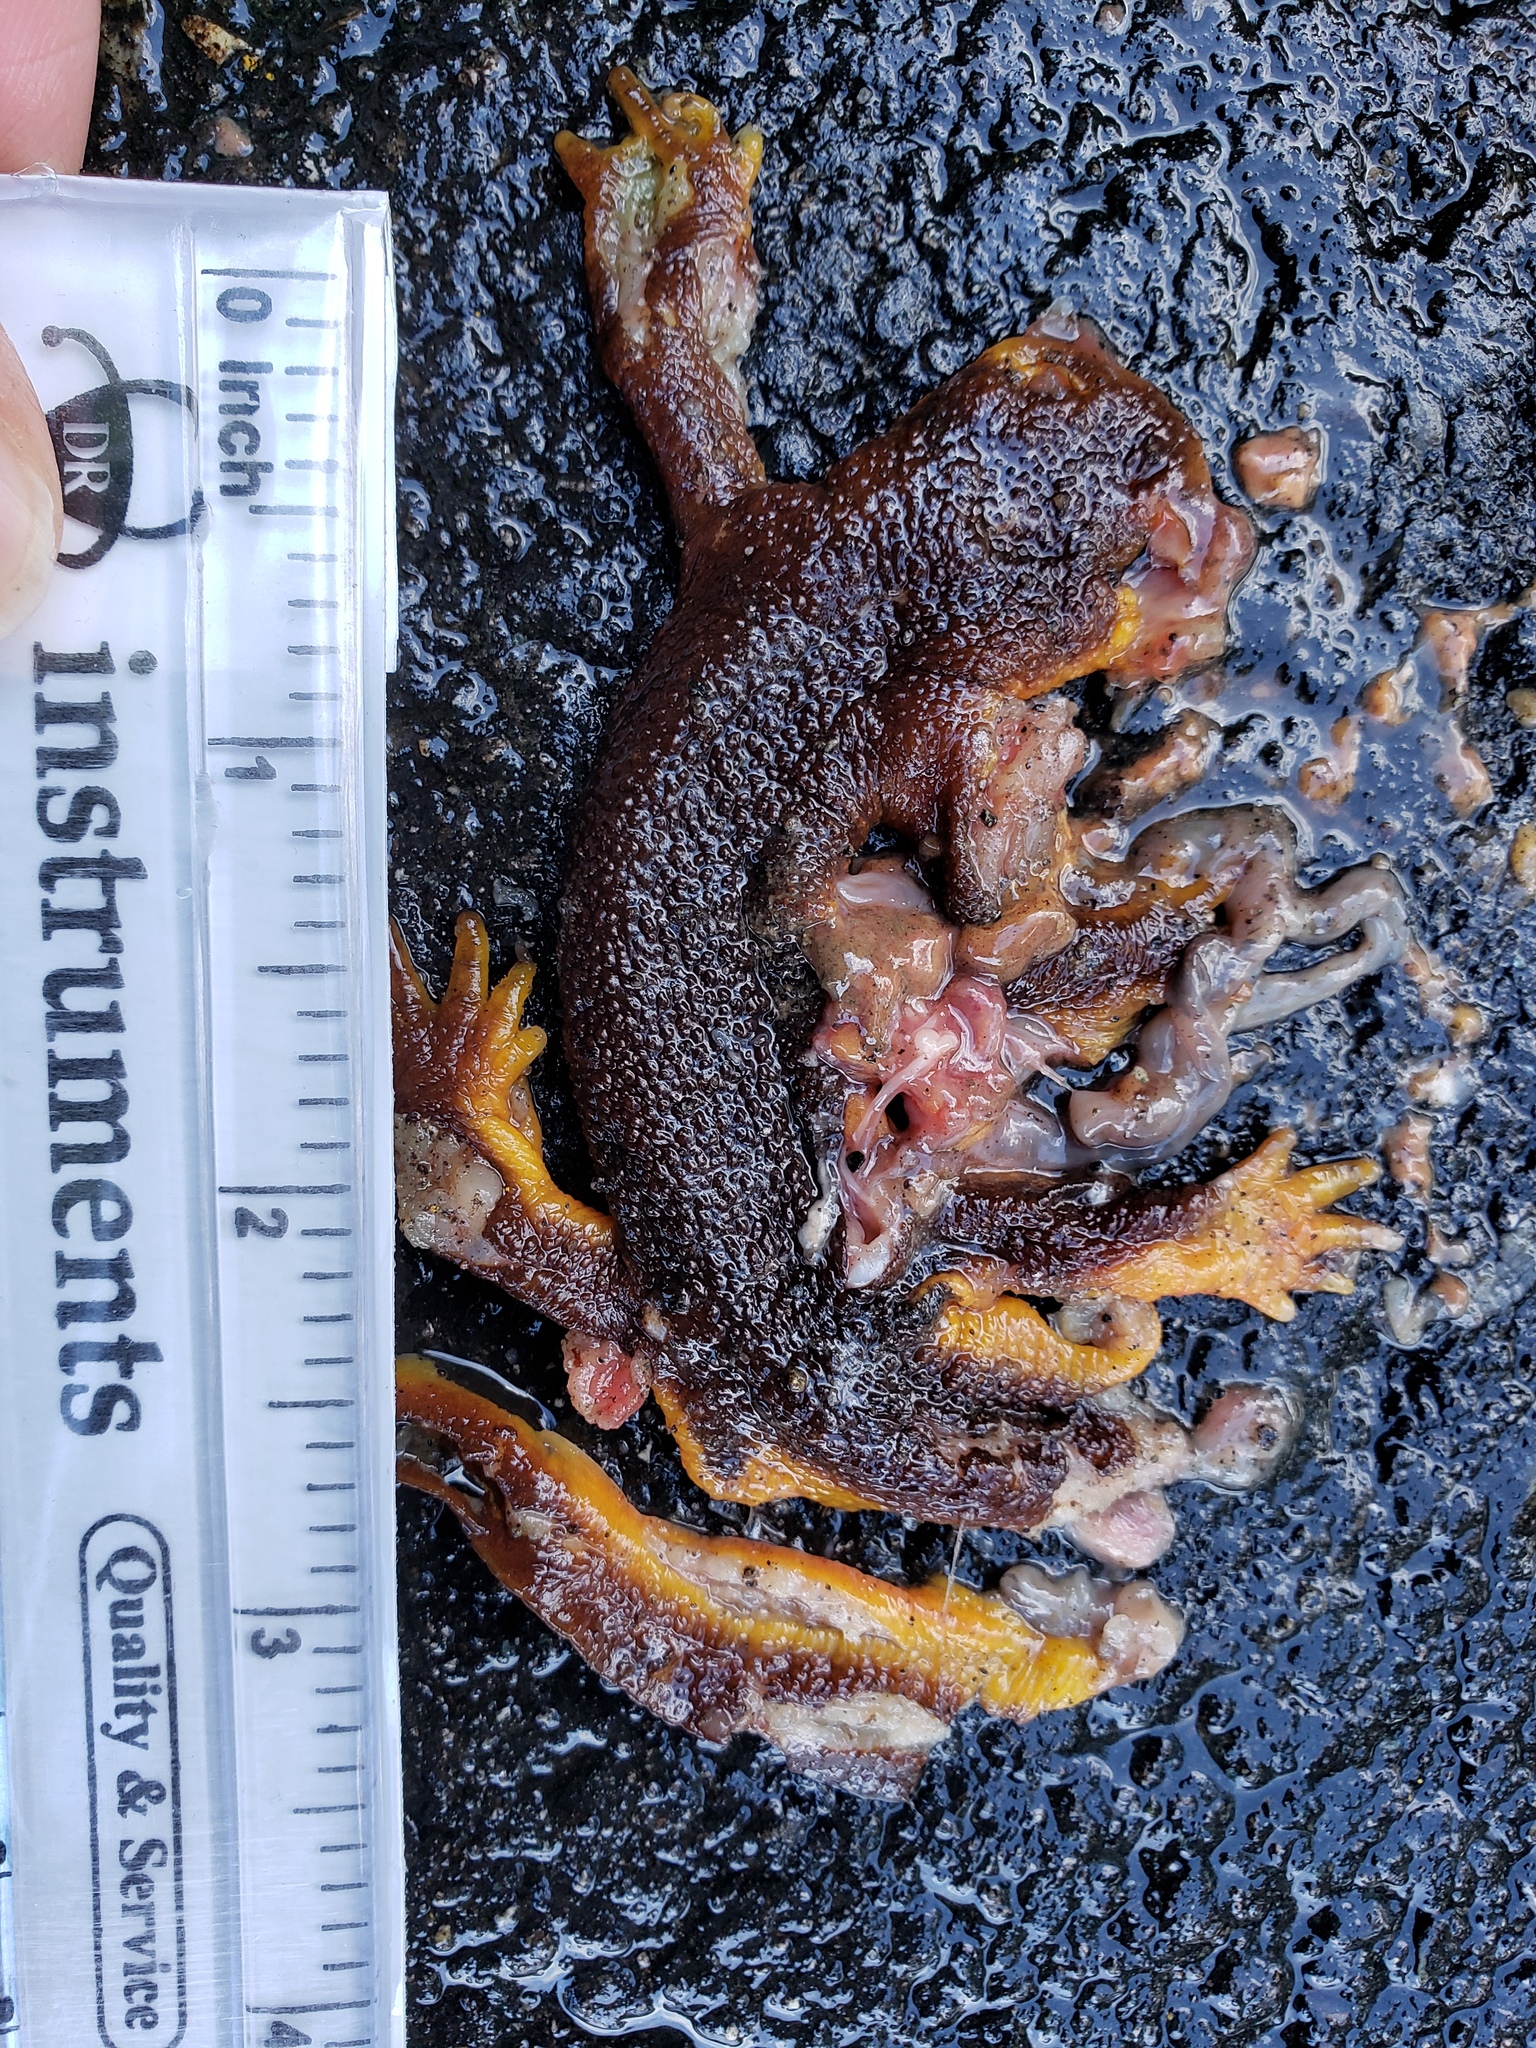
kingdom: Animalia
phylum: Chordata
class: Amphibia
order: Caudata
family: Salamandridae
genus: Taricha
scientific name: Taricha
